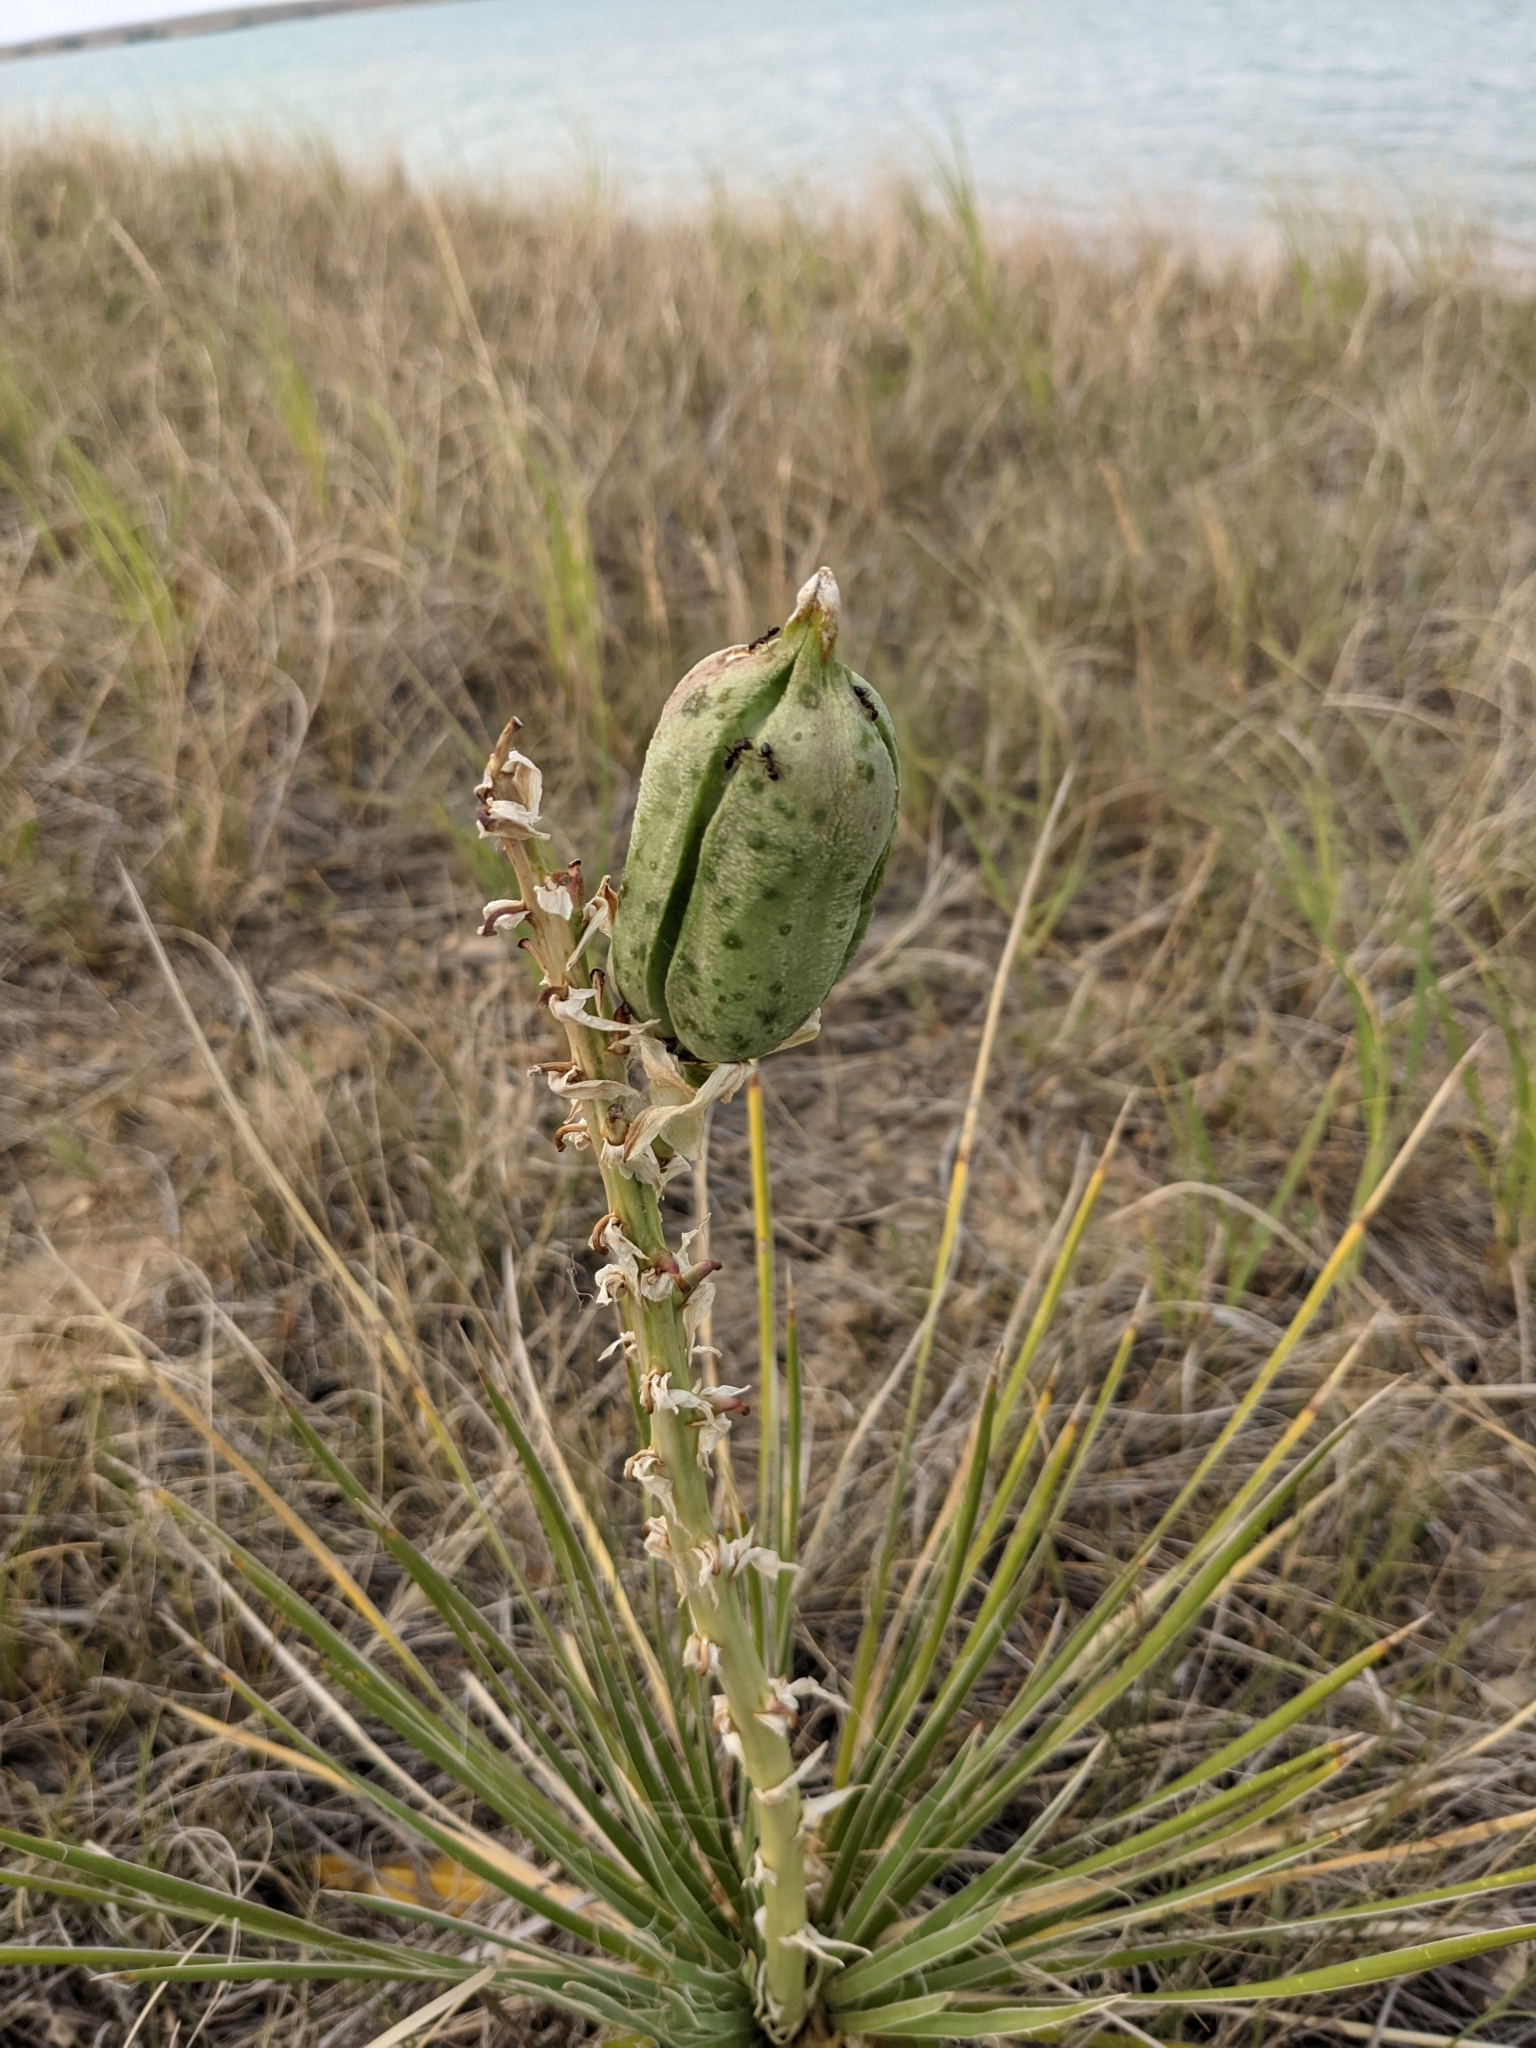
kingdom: Plantae
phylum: Tracheophyta
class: Liliopsida
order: Asparagales
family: Asparagaceae
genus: Yucca
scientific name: Yucca glauca
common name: Great plains yucca
